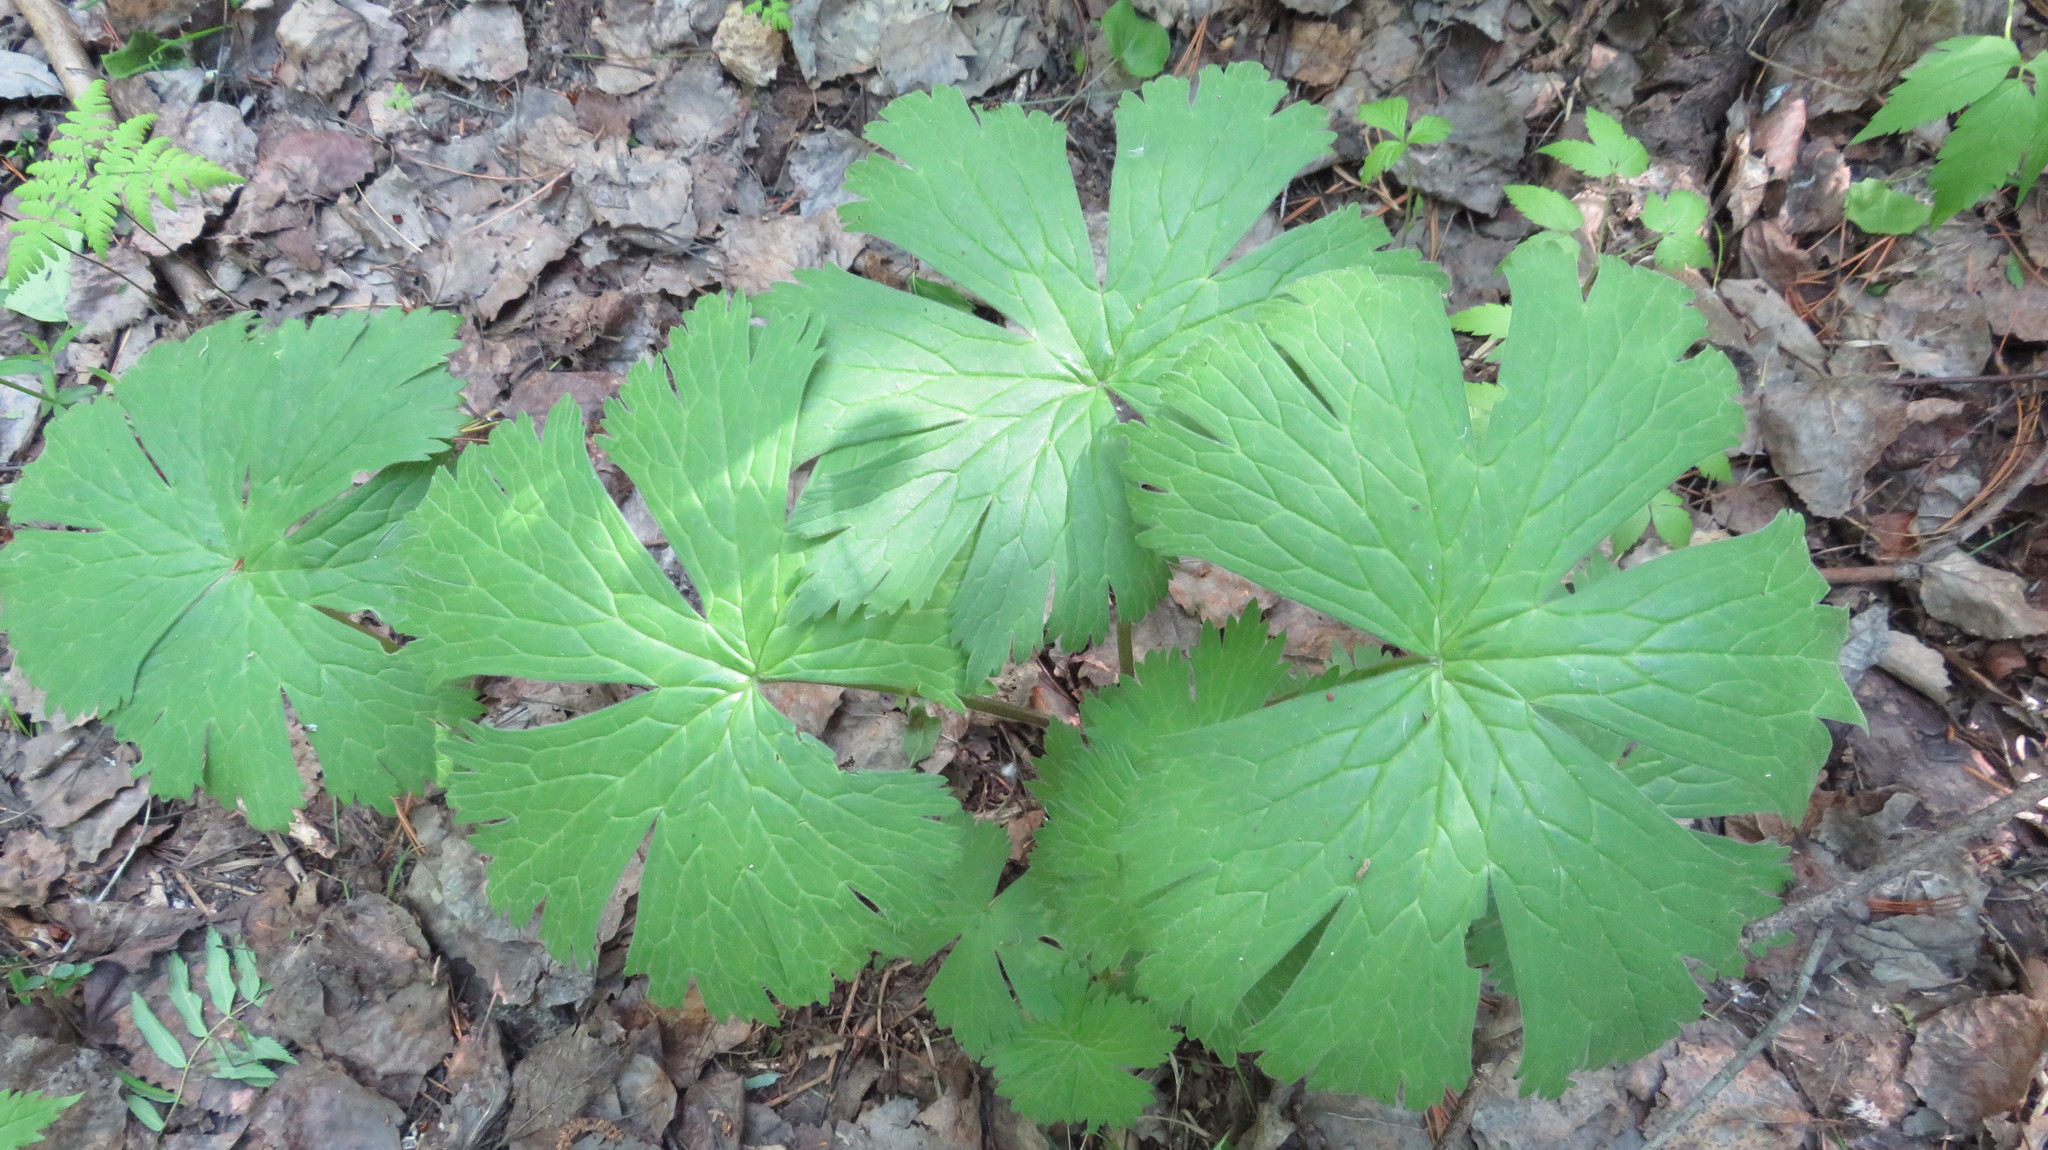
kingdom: Plantae
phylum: Tracheophyta
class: Magnoliopsida
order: Ranunculales
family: Ranunculaceae
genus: Aconitum
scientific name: Aconitum septentrionale
